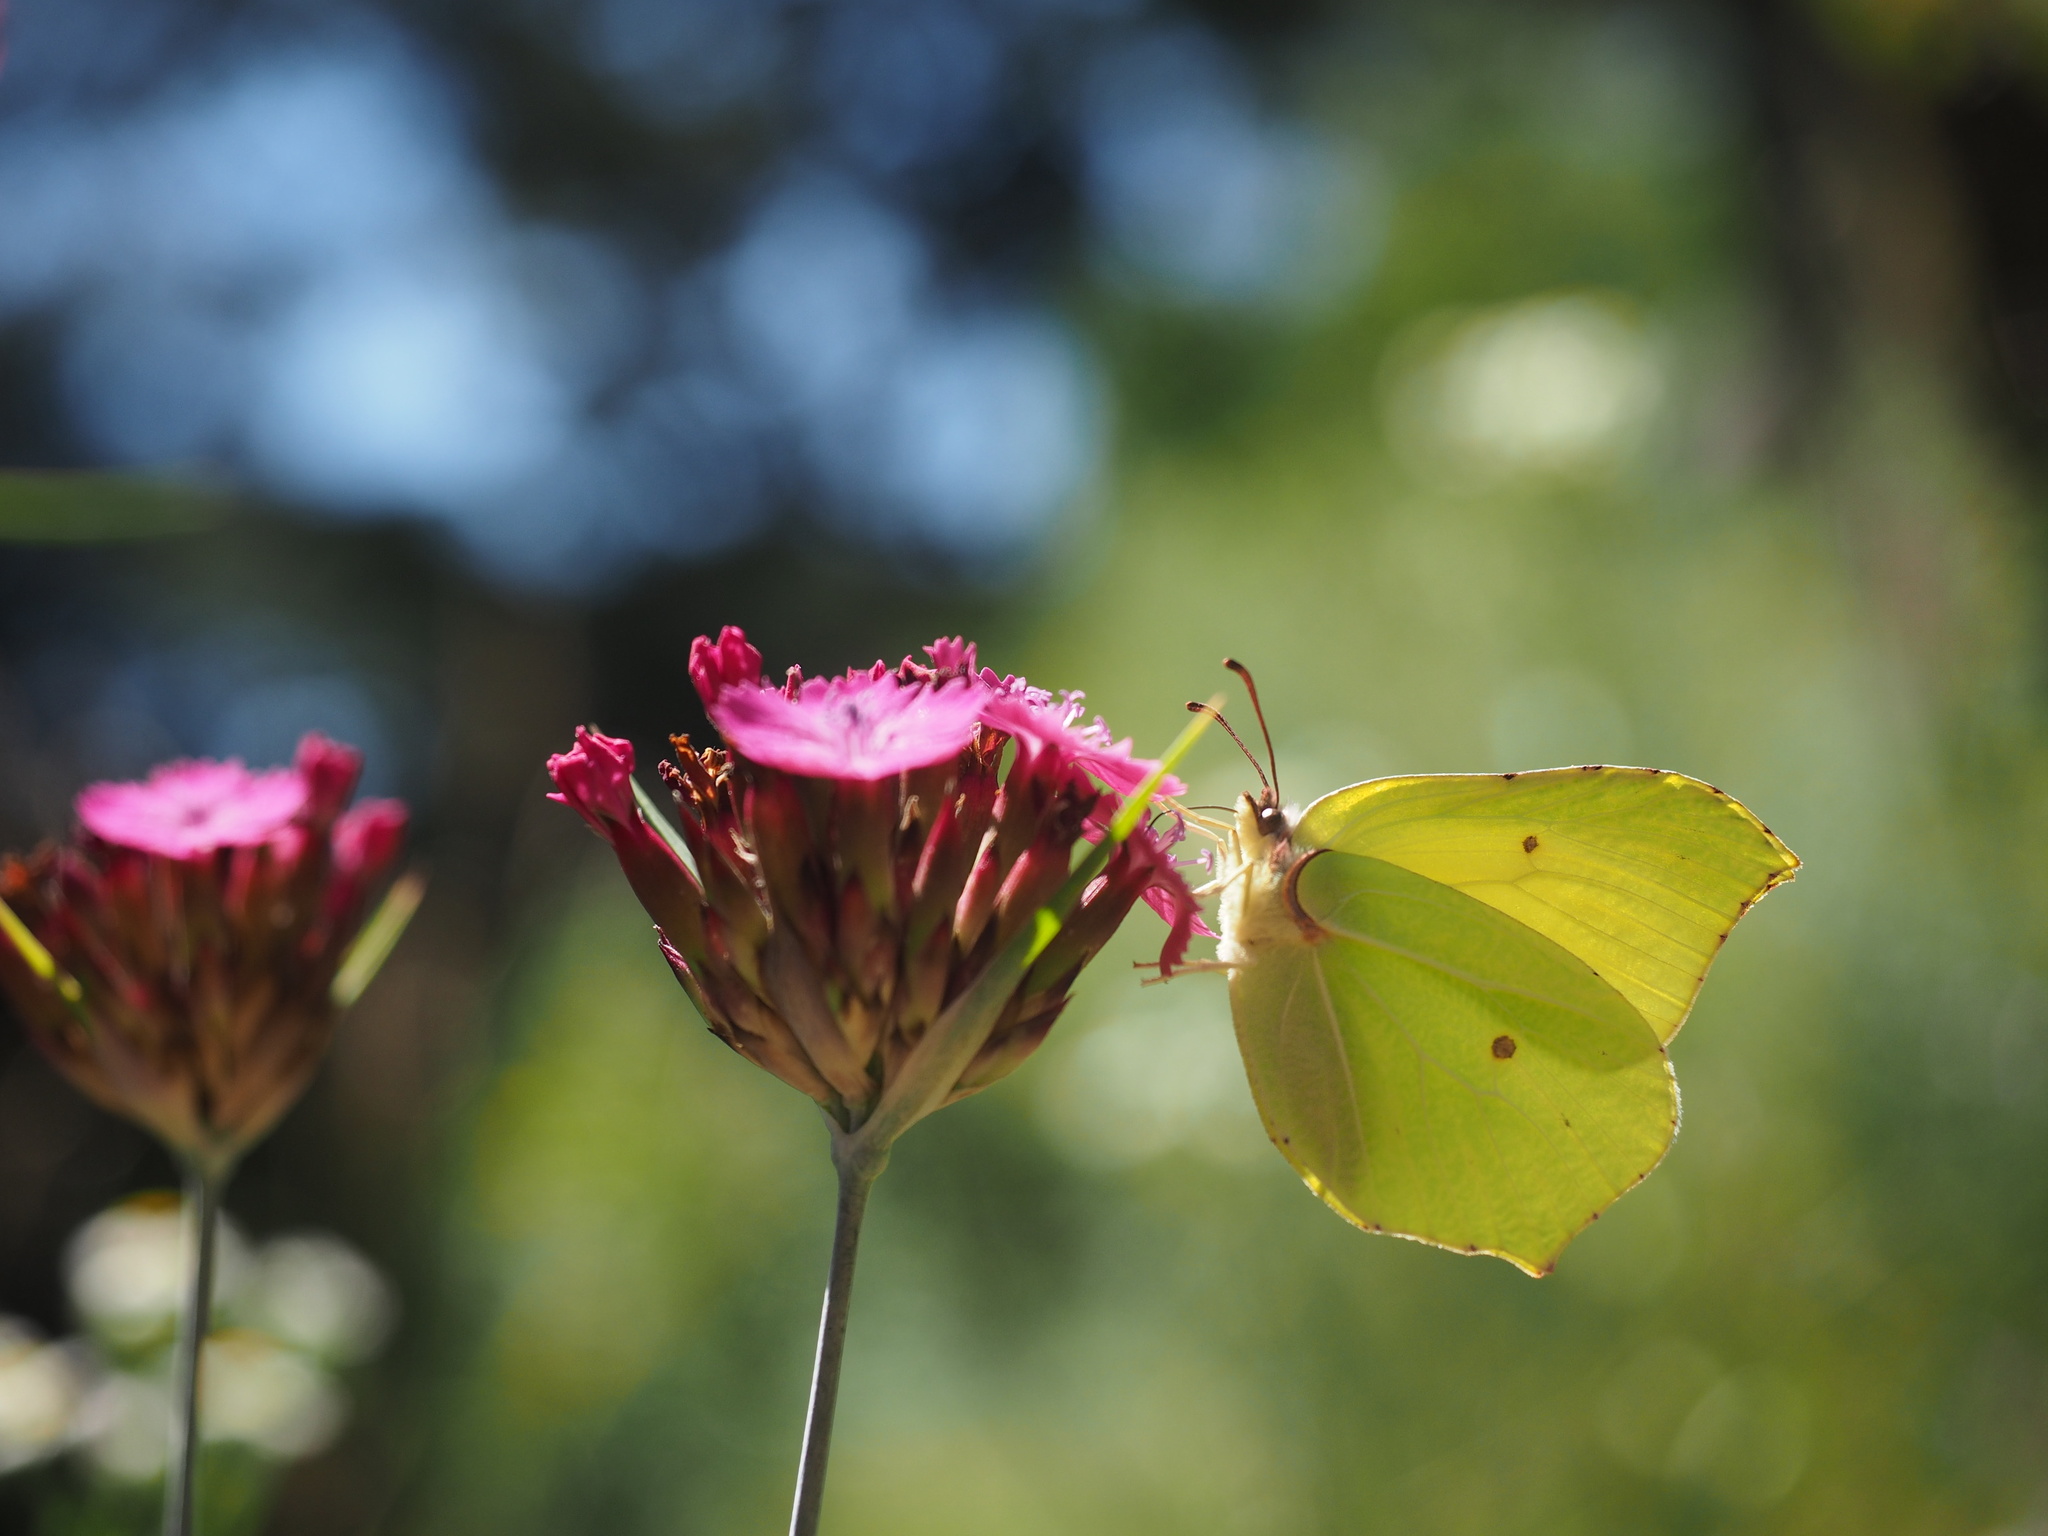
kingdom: Plantae
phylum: Tracheophyta
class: Magnoliopsida
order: Caryophyllales
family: Caryophyllaceae
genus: Dianthus
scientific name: Dianthus carthusianorum
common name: Carthusian pink
